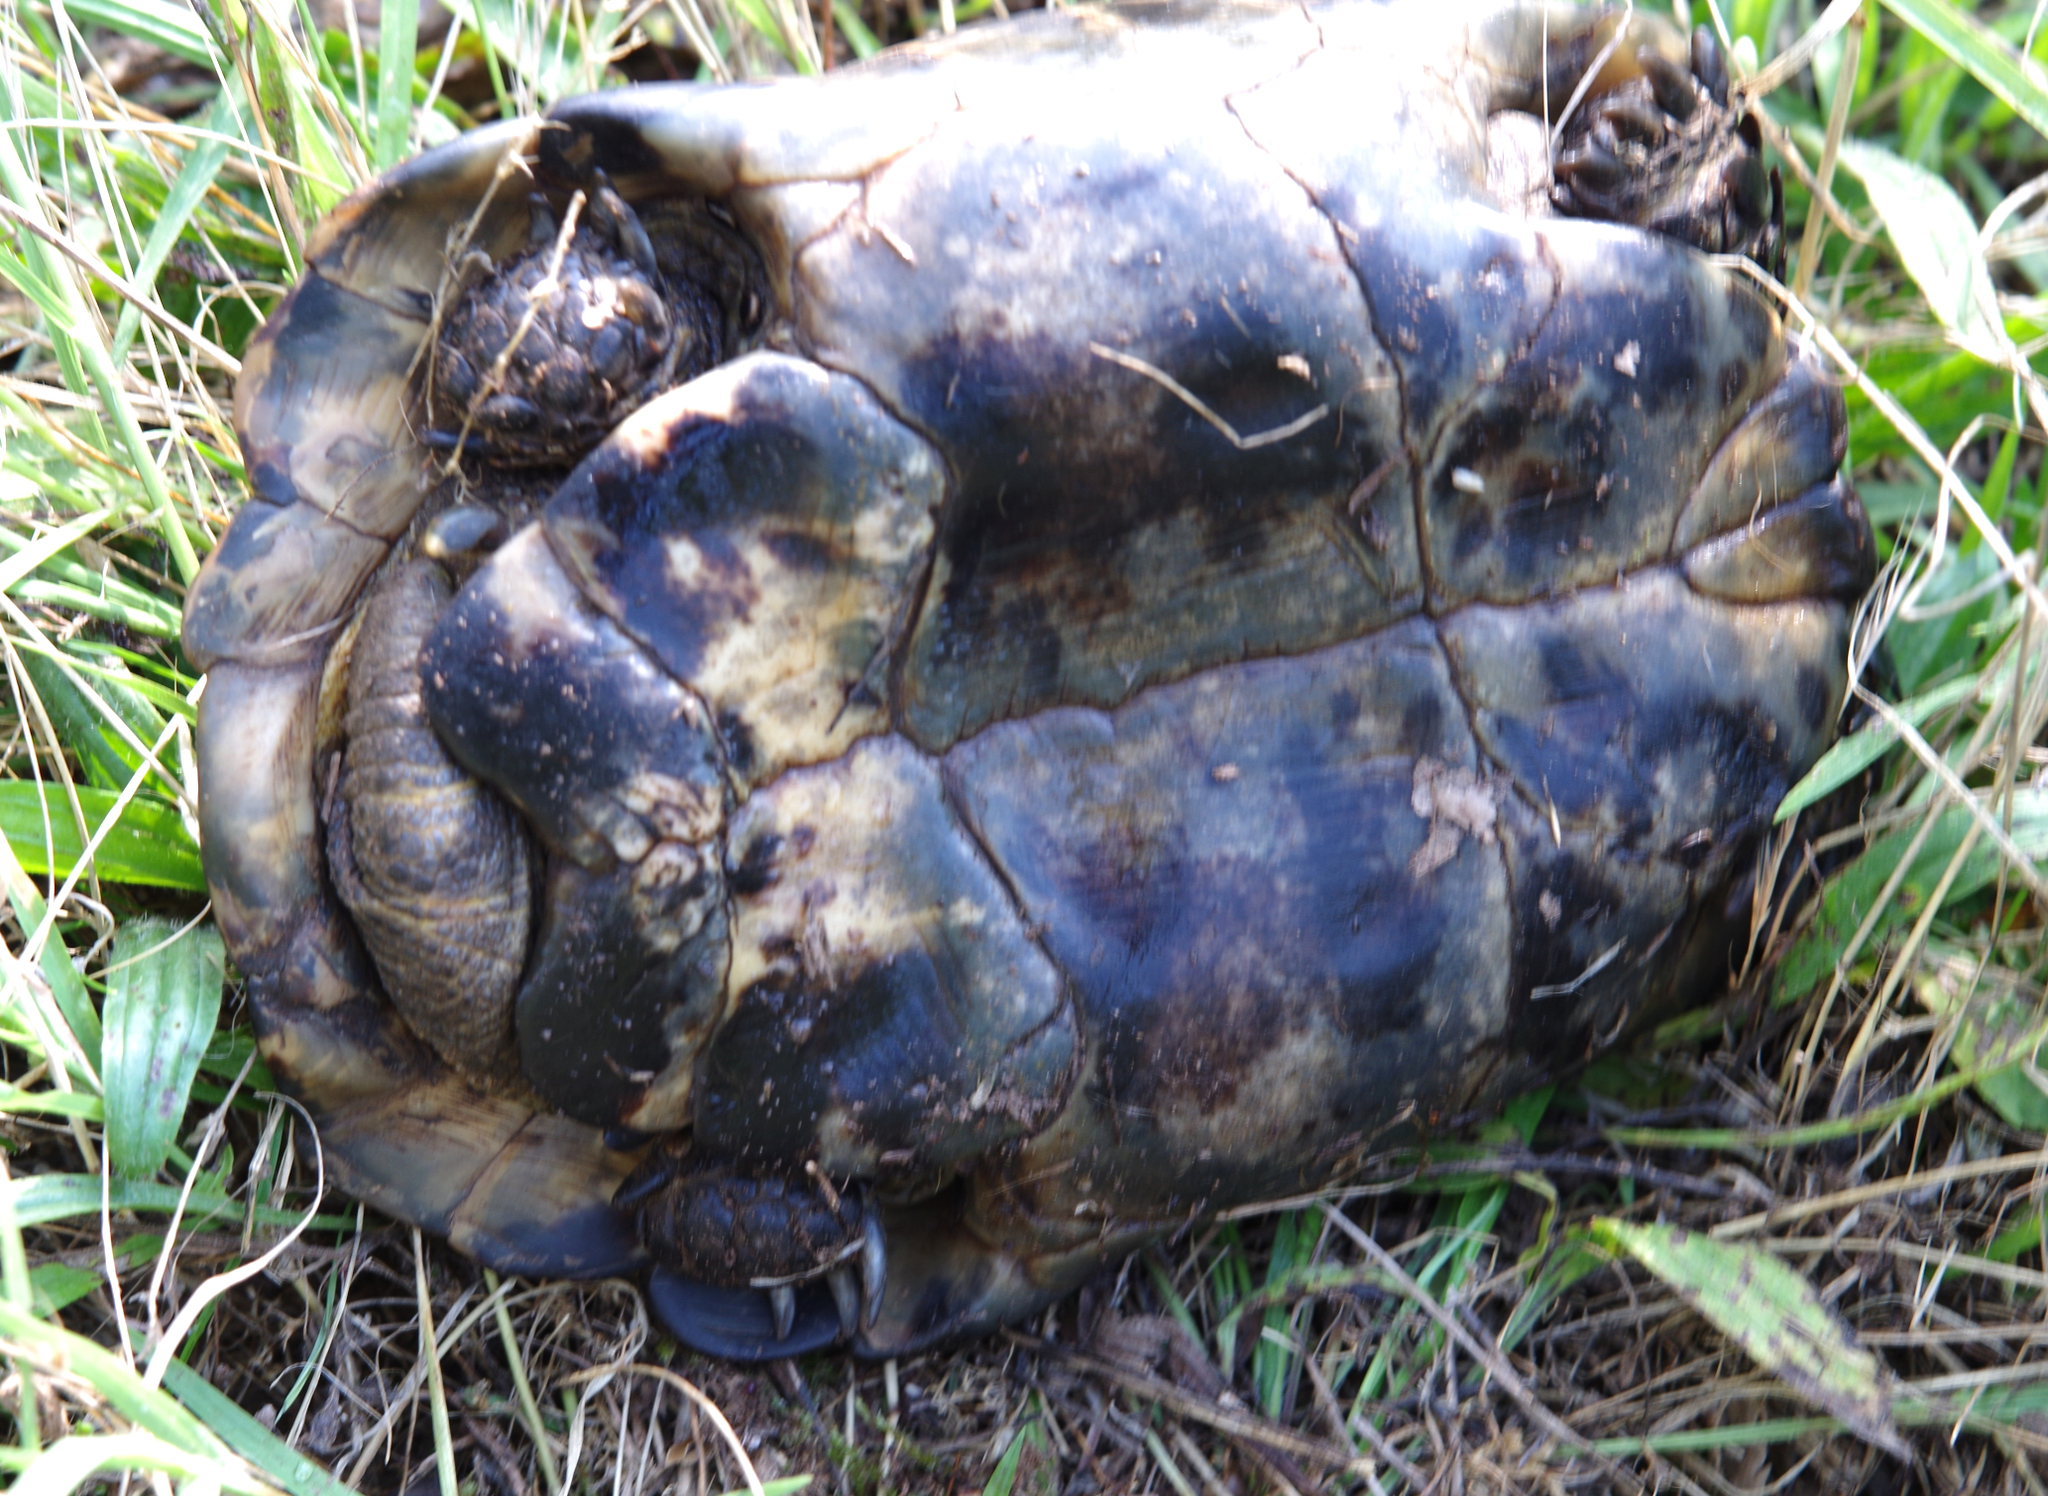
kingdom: Animalia
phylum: Chordata
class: Testudines
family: Testudinidae
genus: Testudo
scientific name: Testudo graeca
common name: Common tortoise
